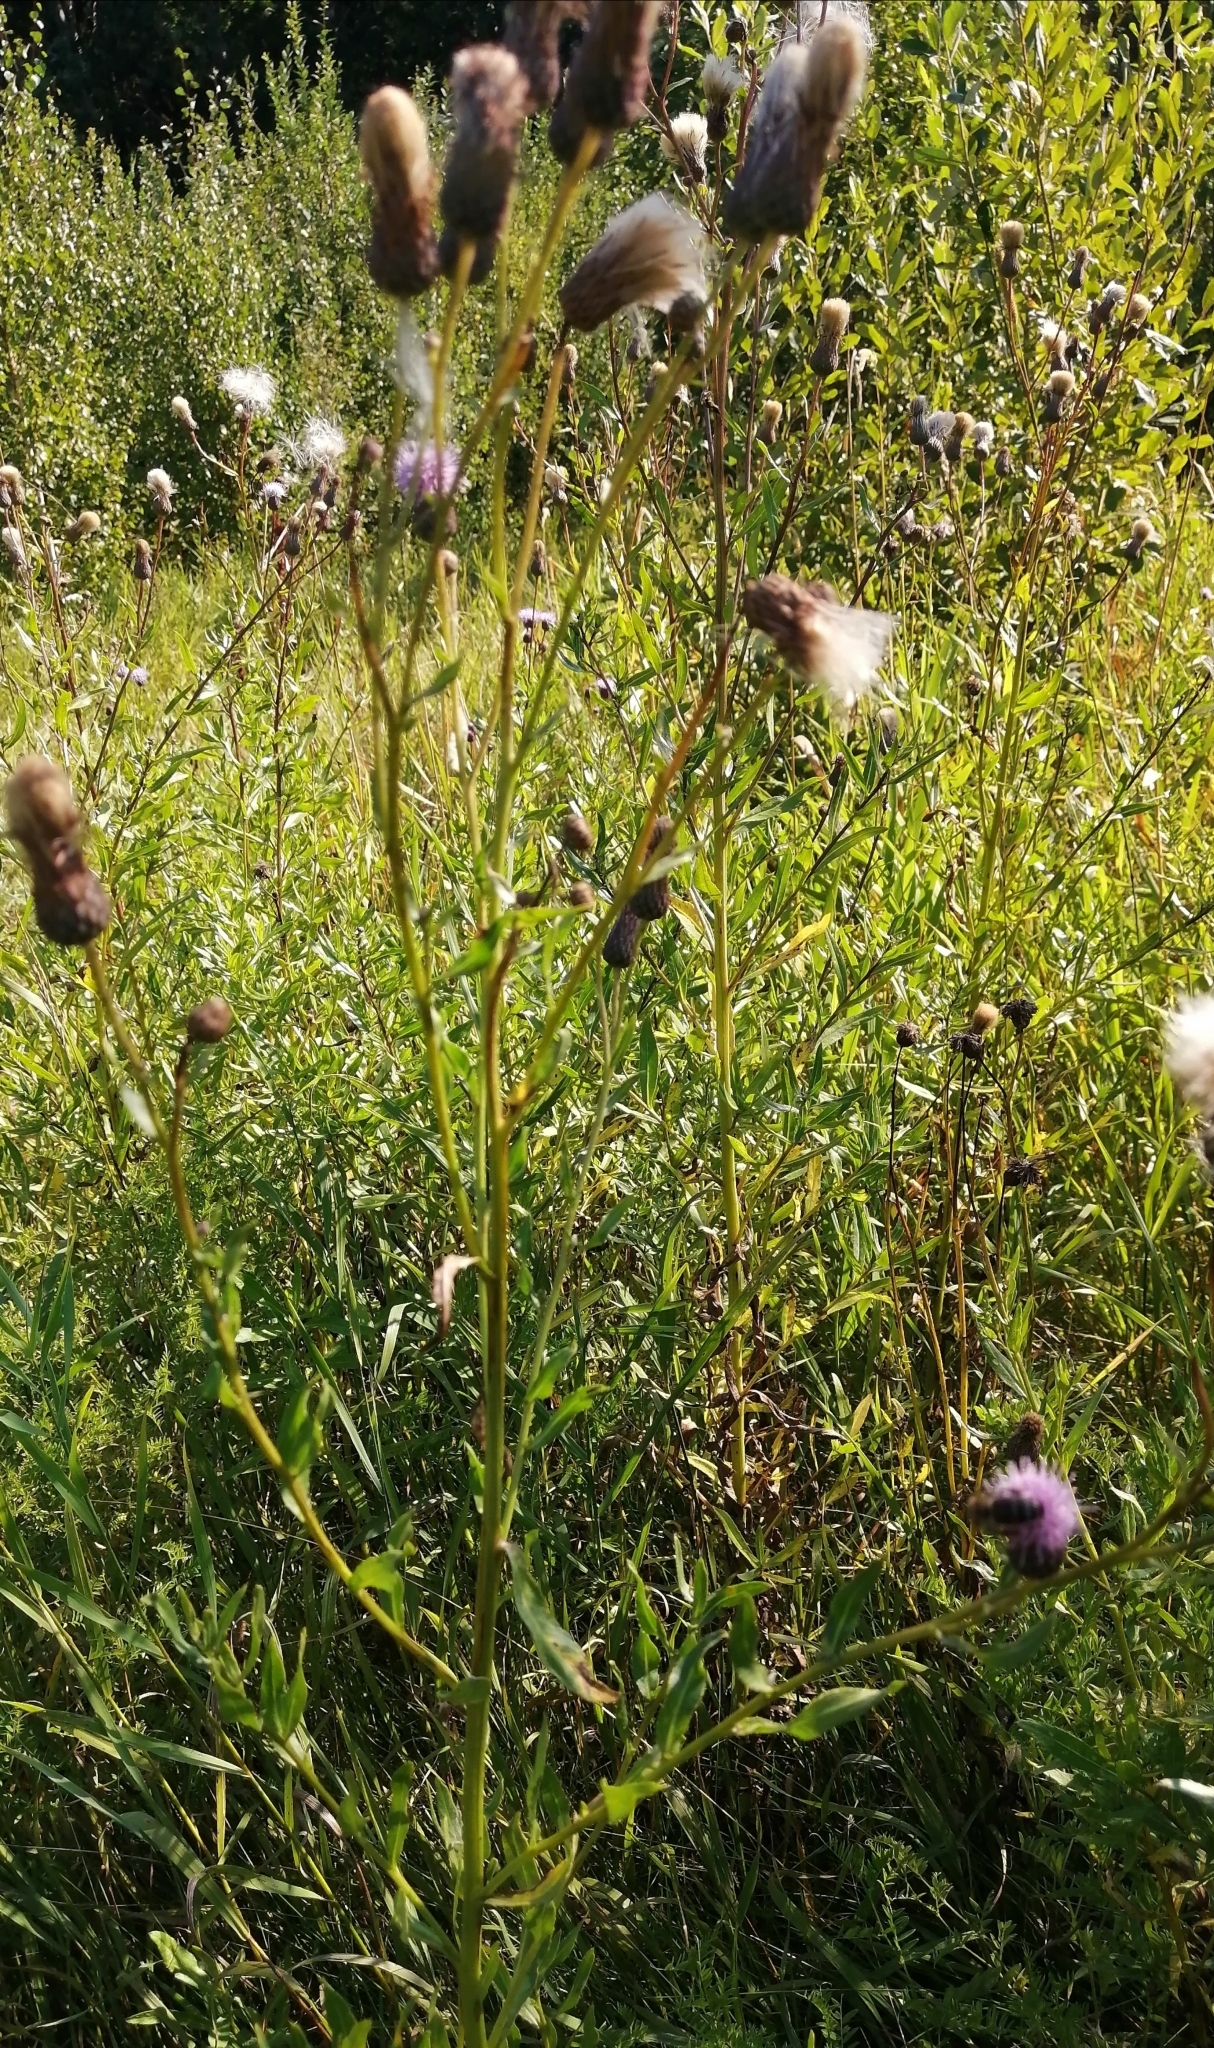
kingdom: Plantae
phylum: Tracheophyta
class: Magnoliopsida
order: Asterales
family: Asteraceae
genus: Cirsium
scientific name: Cirsium arvense
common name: Creeping thistle
